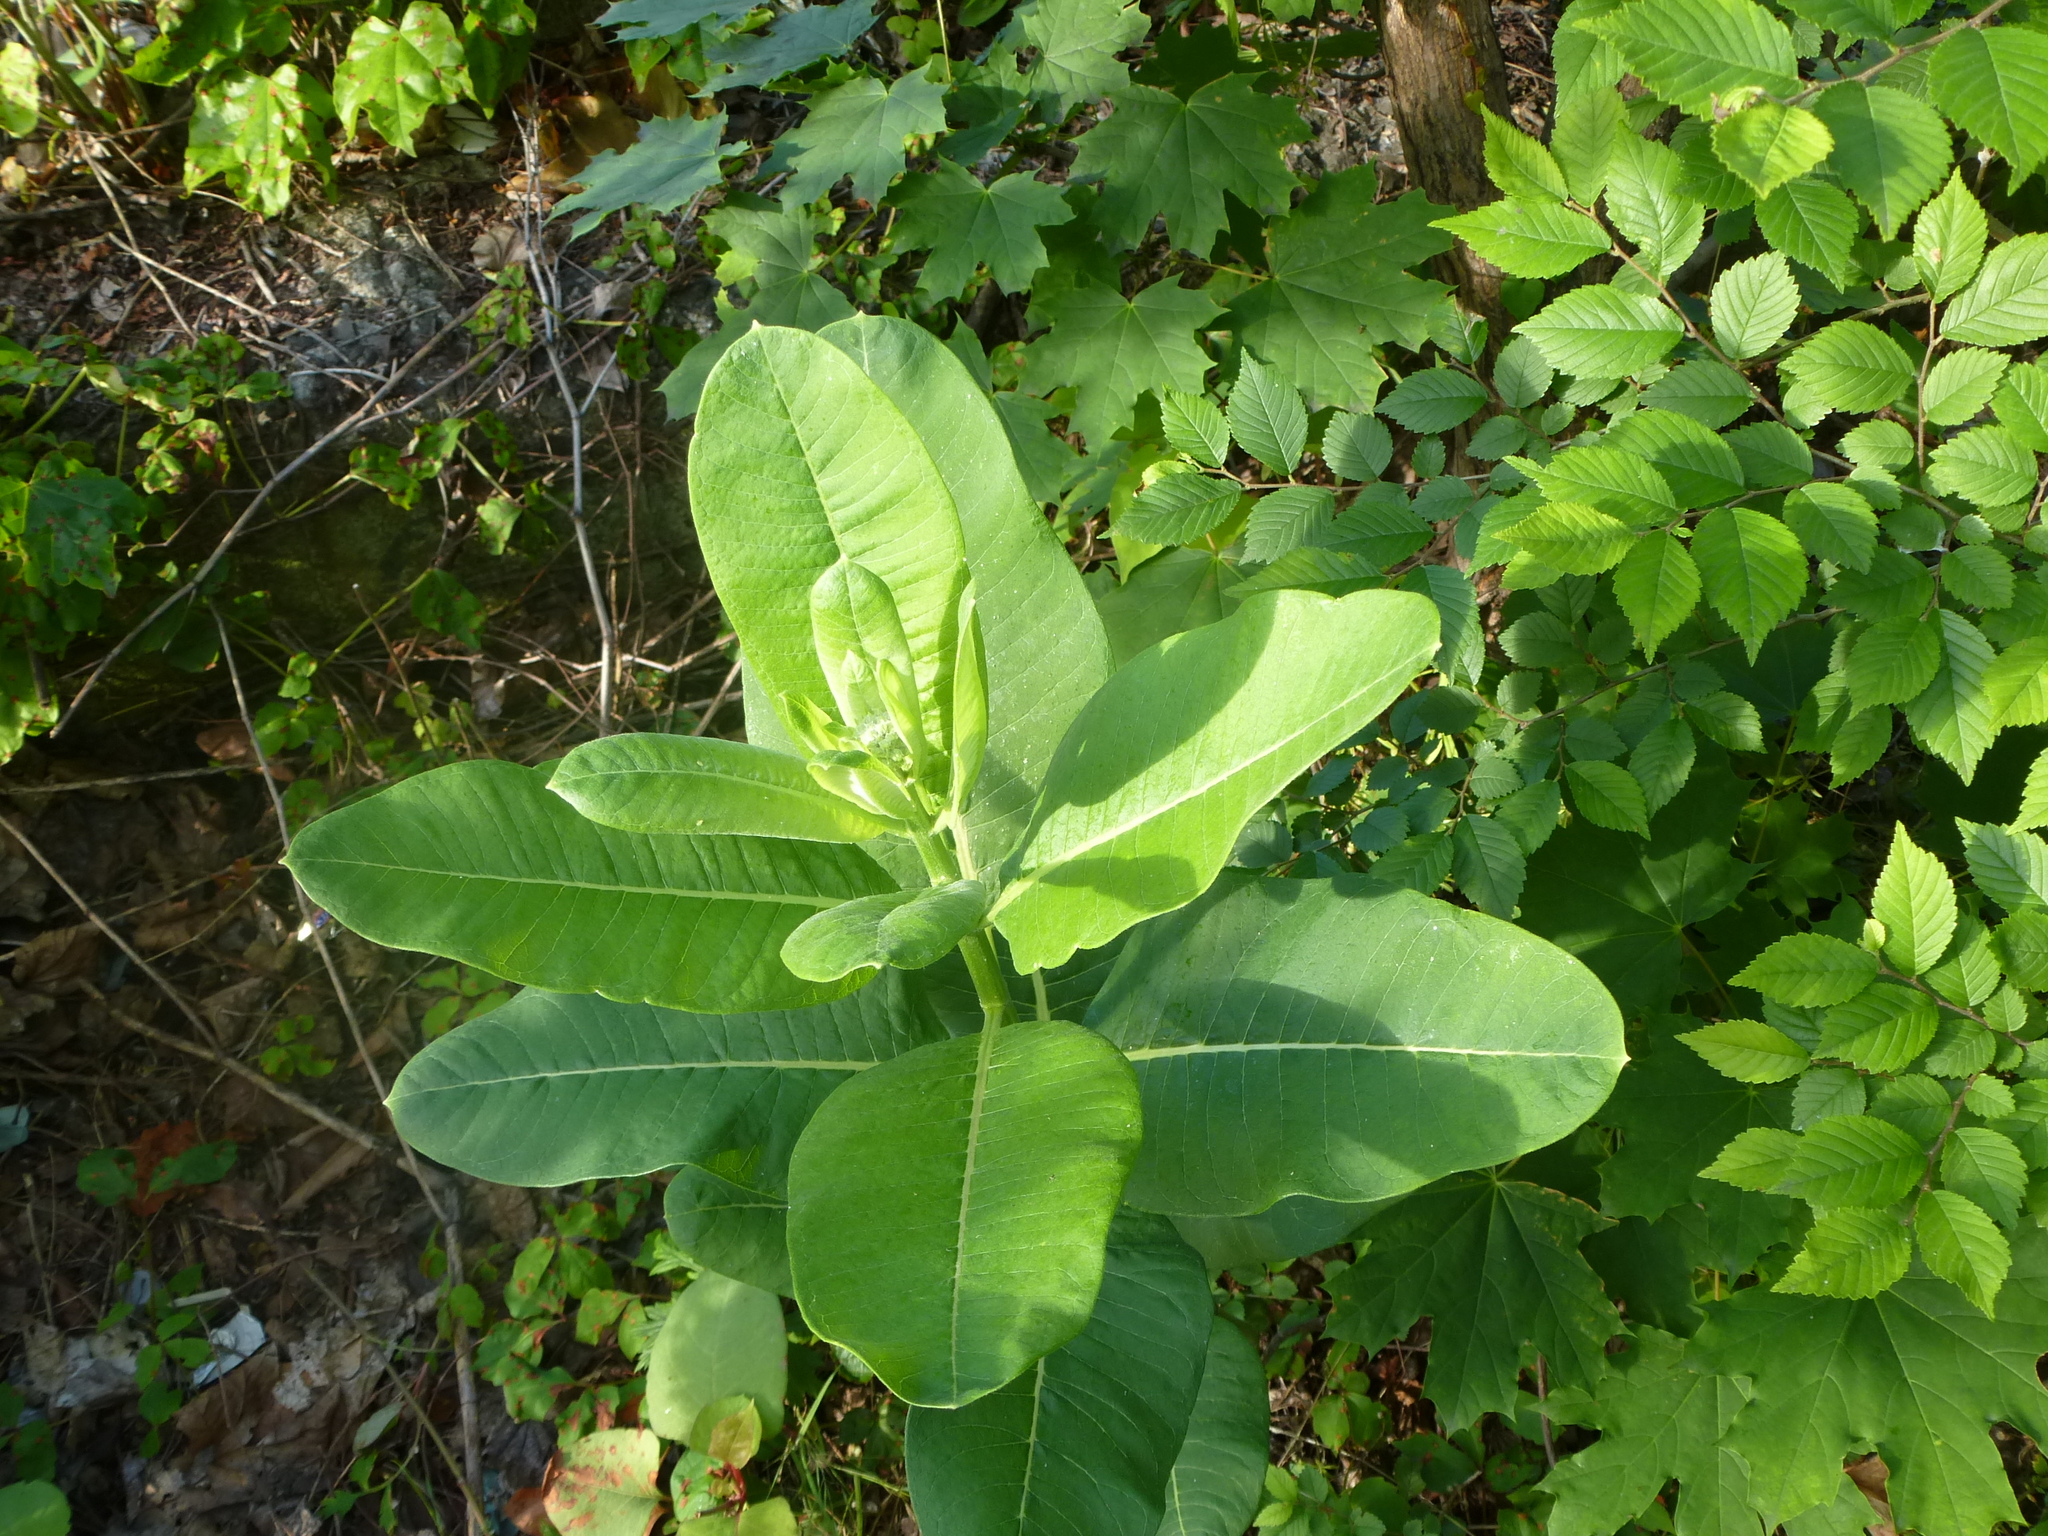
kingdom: Plantae
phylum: Tracheophyta
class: Magnoliopsida
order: Gentianales
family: Apocynaceae
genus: Asclepias
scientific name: Asclepias syriaca
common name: Common milkweed
